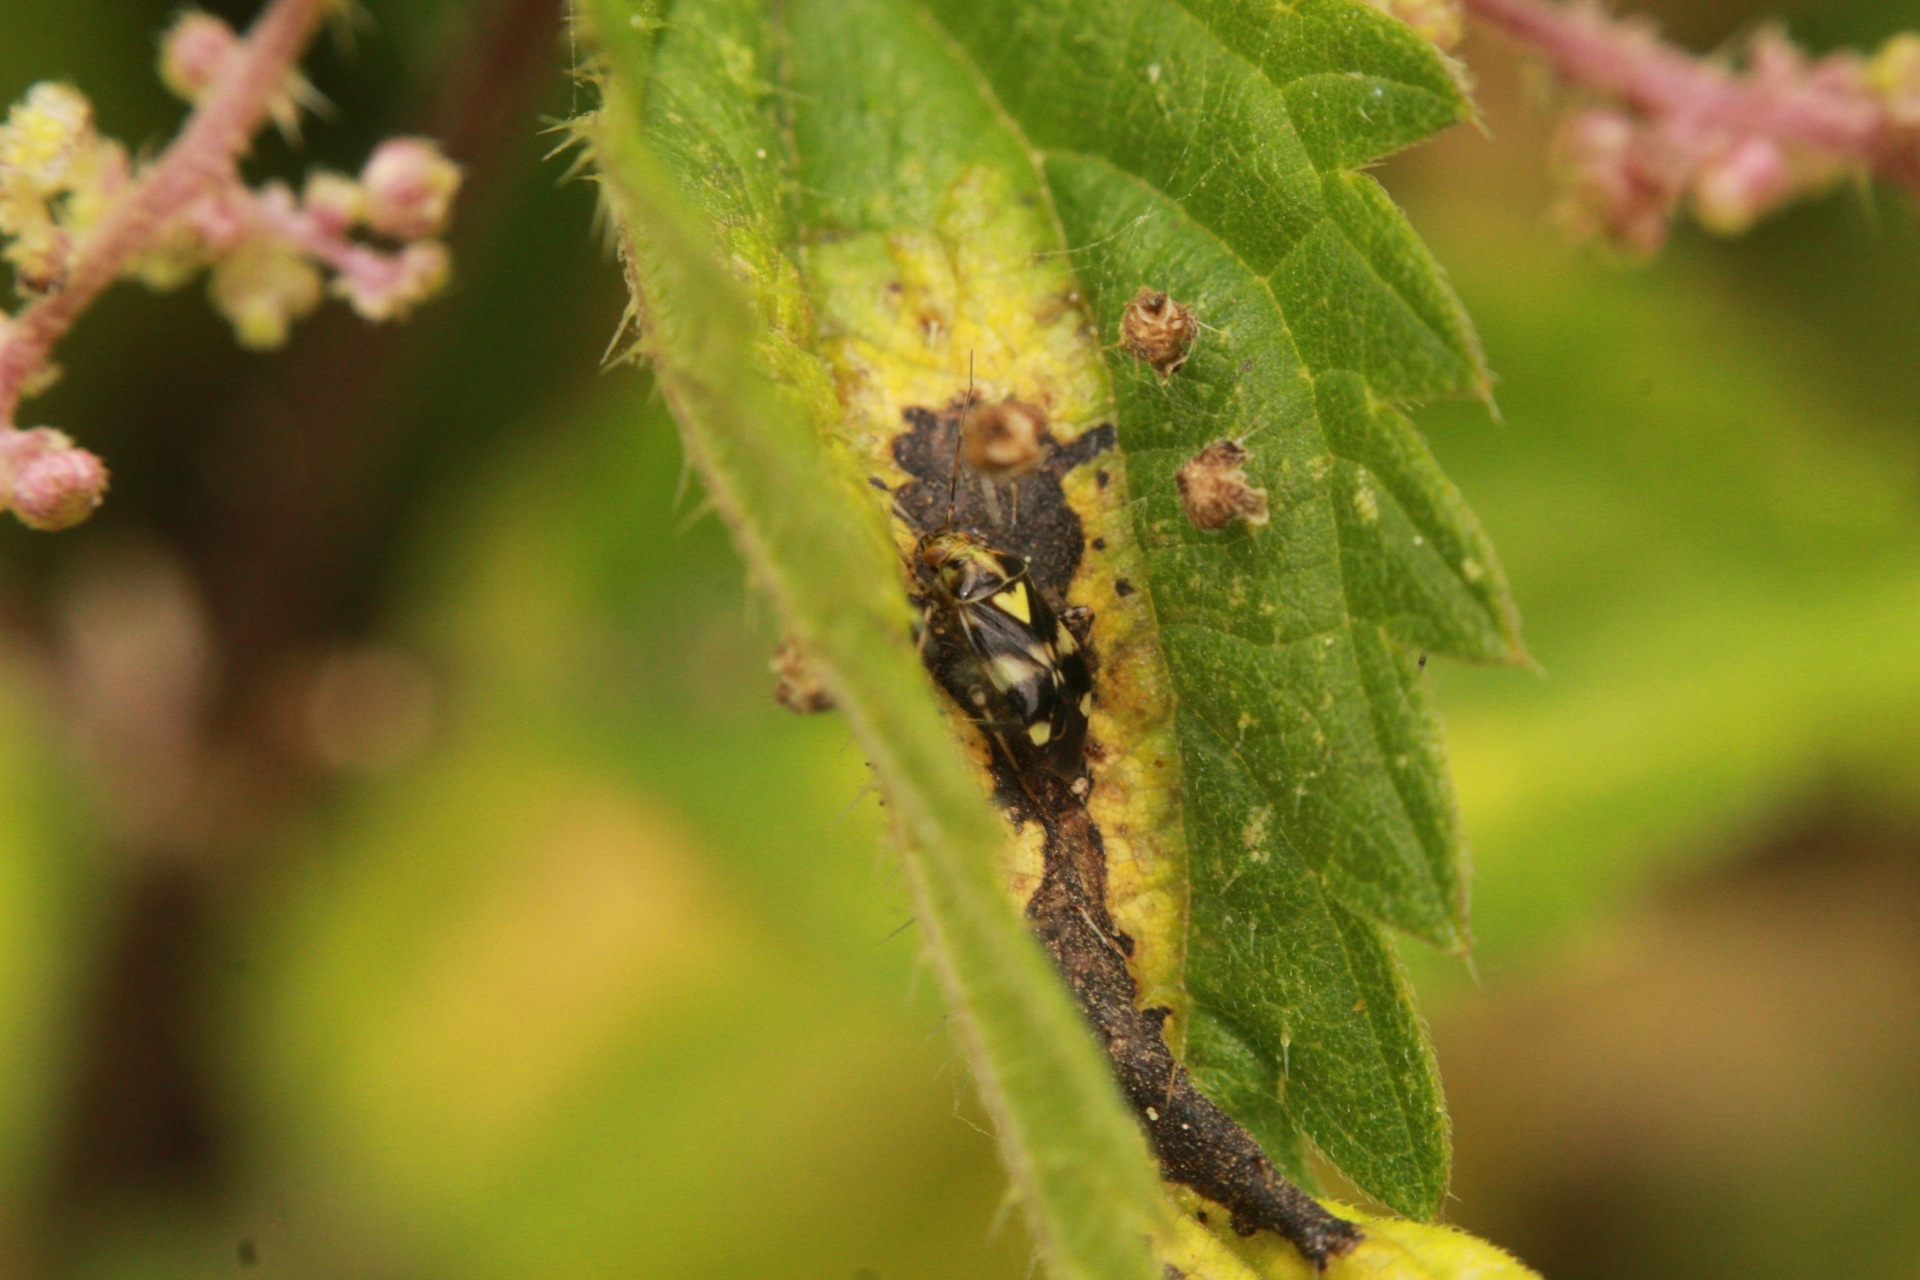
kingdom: Animalia
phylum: Arthropoda
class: Insecta
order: Hemiptera
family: Miridae
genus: Liocoris
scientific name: Liocoris tripustulatus
